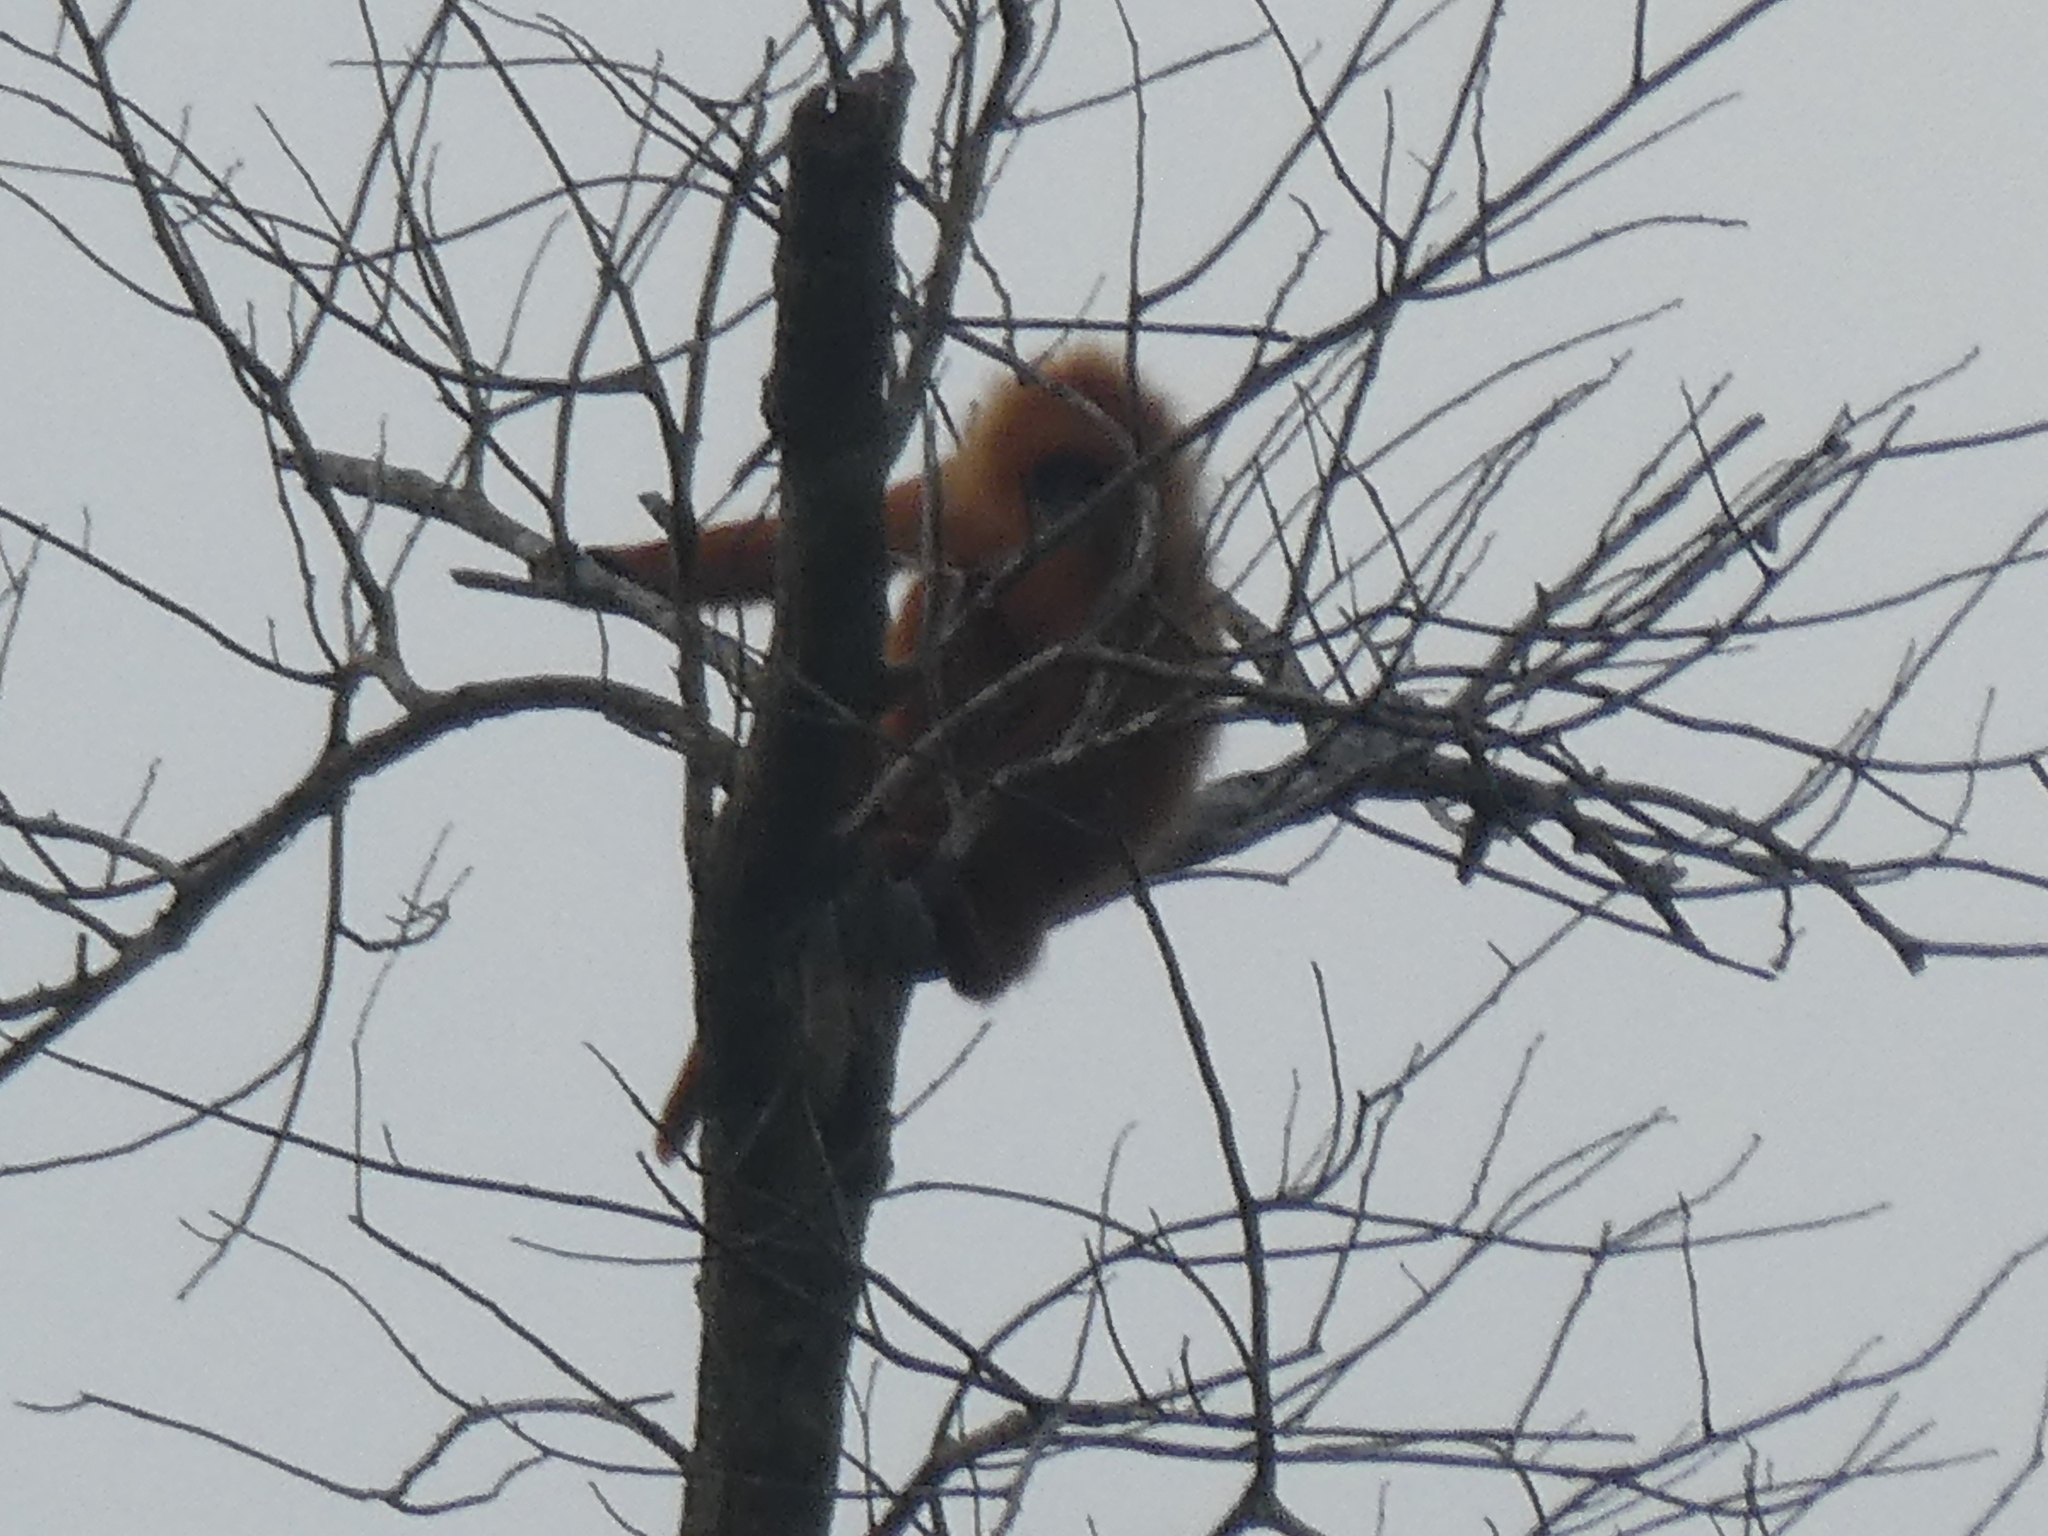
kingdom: Animalia
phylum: Chordata
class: Mammalia
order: Primates
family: Cercopithecidae
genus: Trachypithecus
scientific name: Trachypithecus cristatus
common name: Silvery lutung
